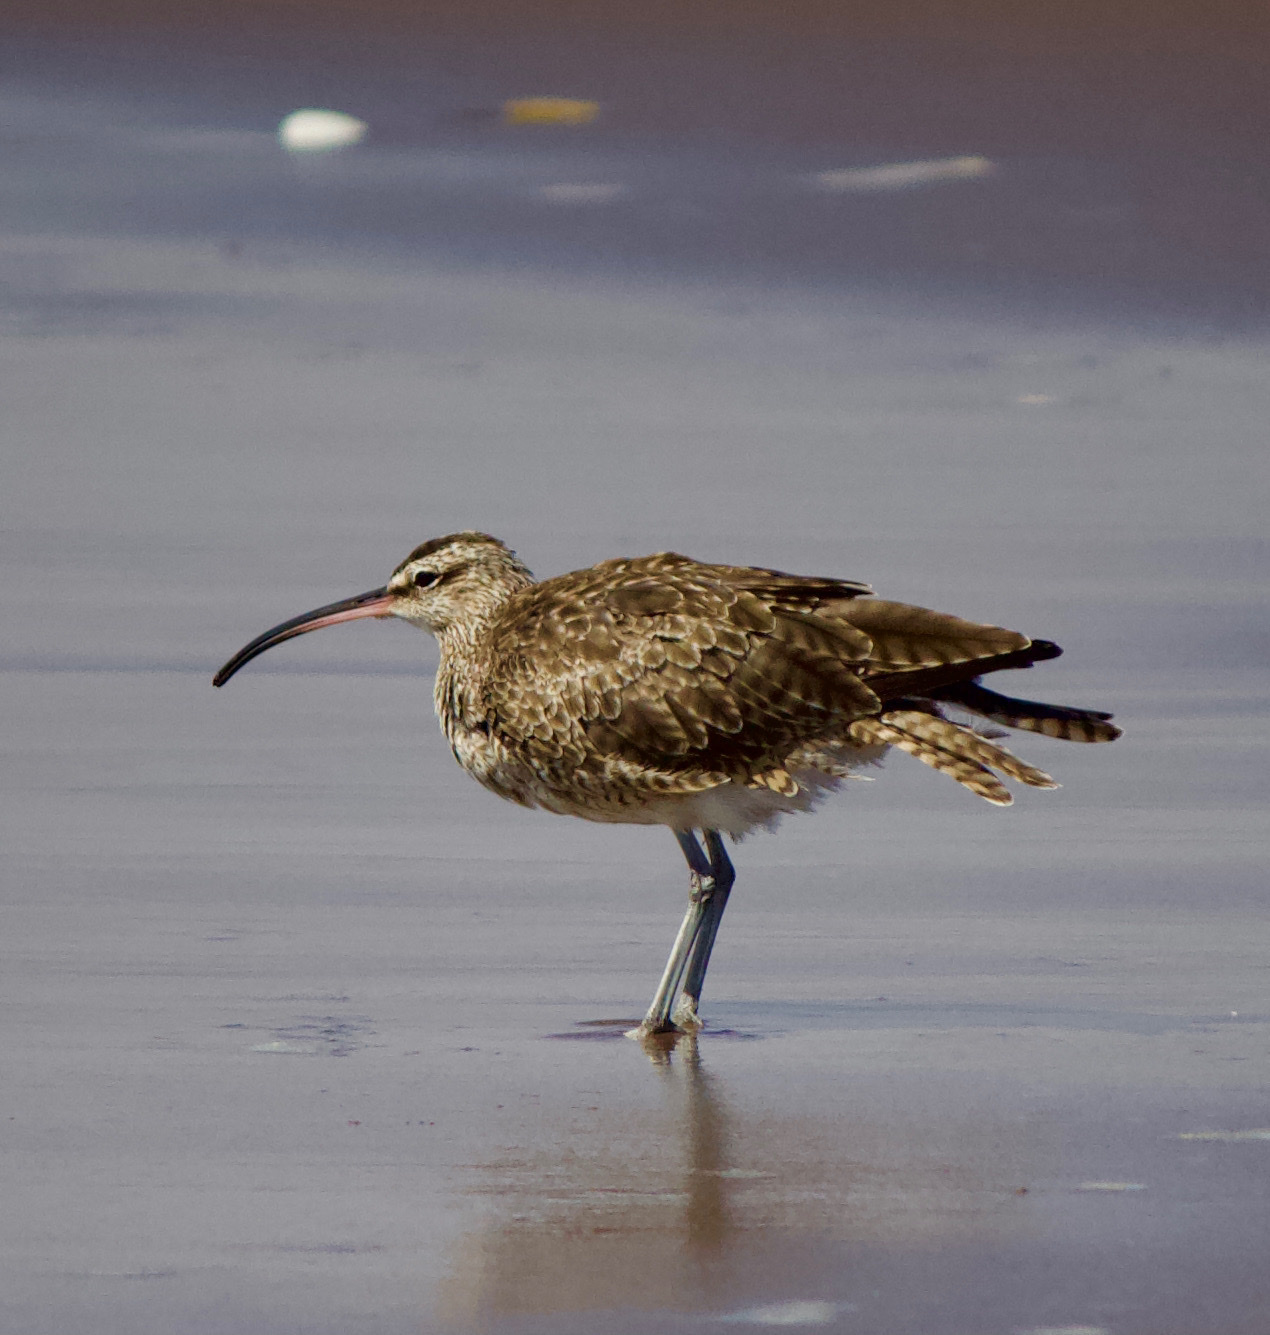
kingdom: Animalia
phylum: Chordata
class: Aves
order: Charadriiformes
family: Scolopacidae
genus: Numenius
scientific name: Numenius phaeopus
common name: Whimbrel
